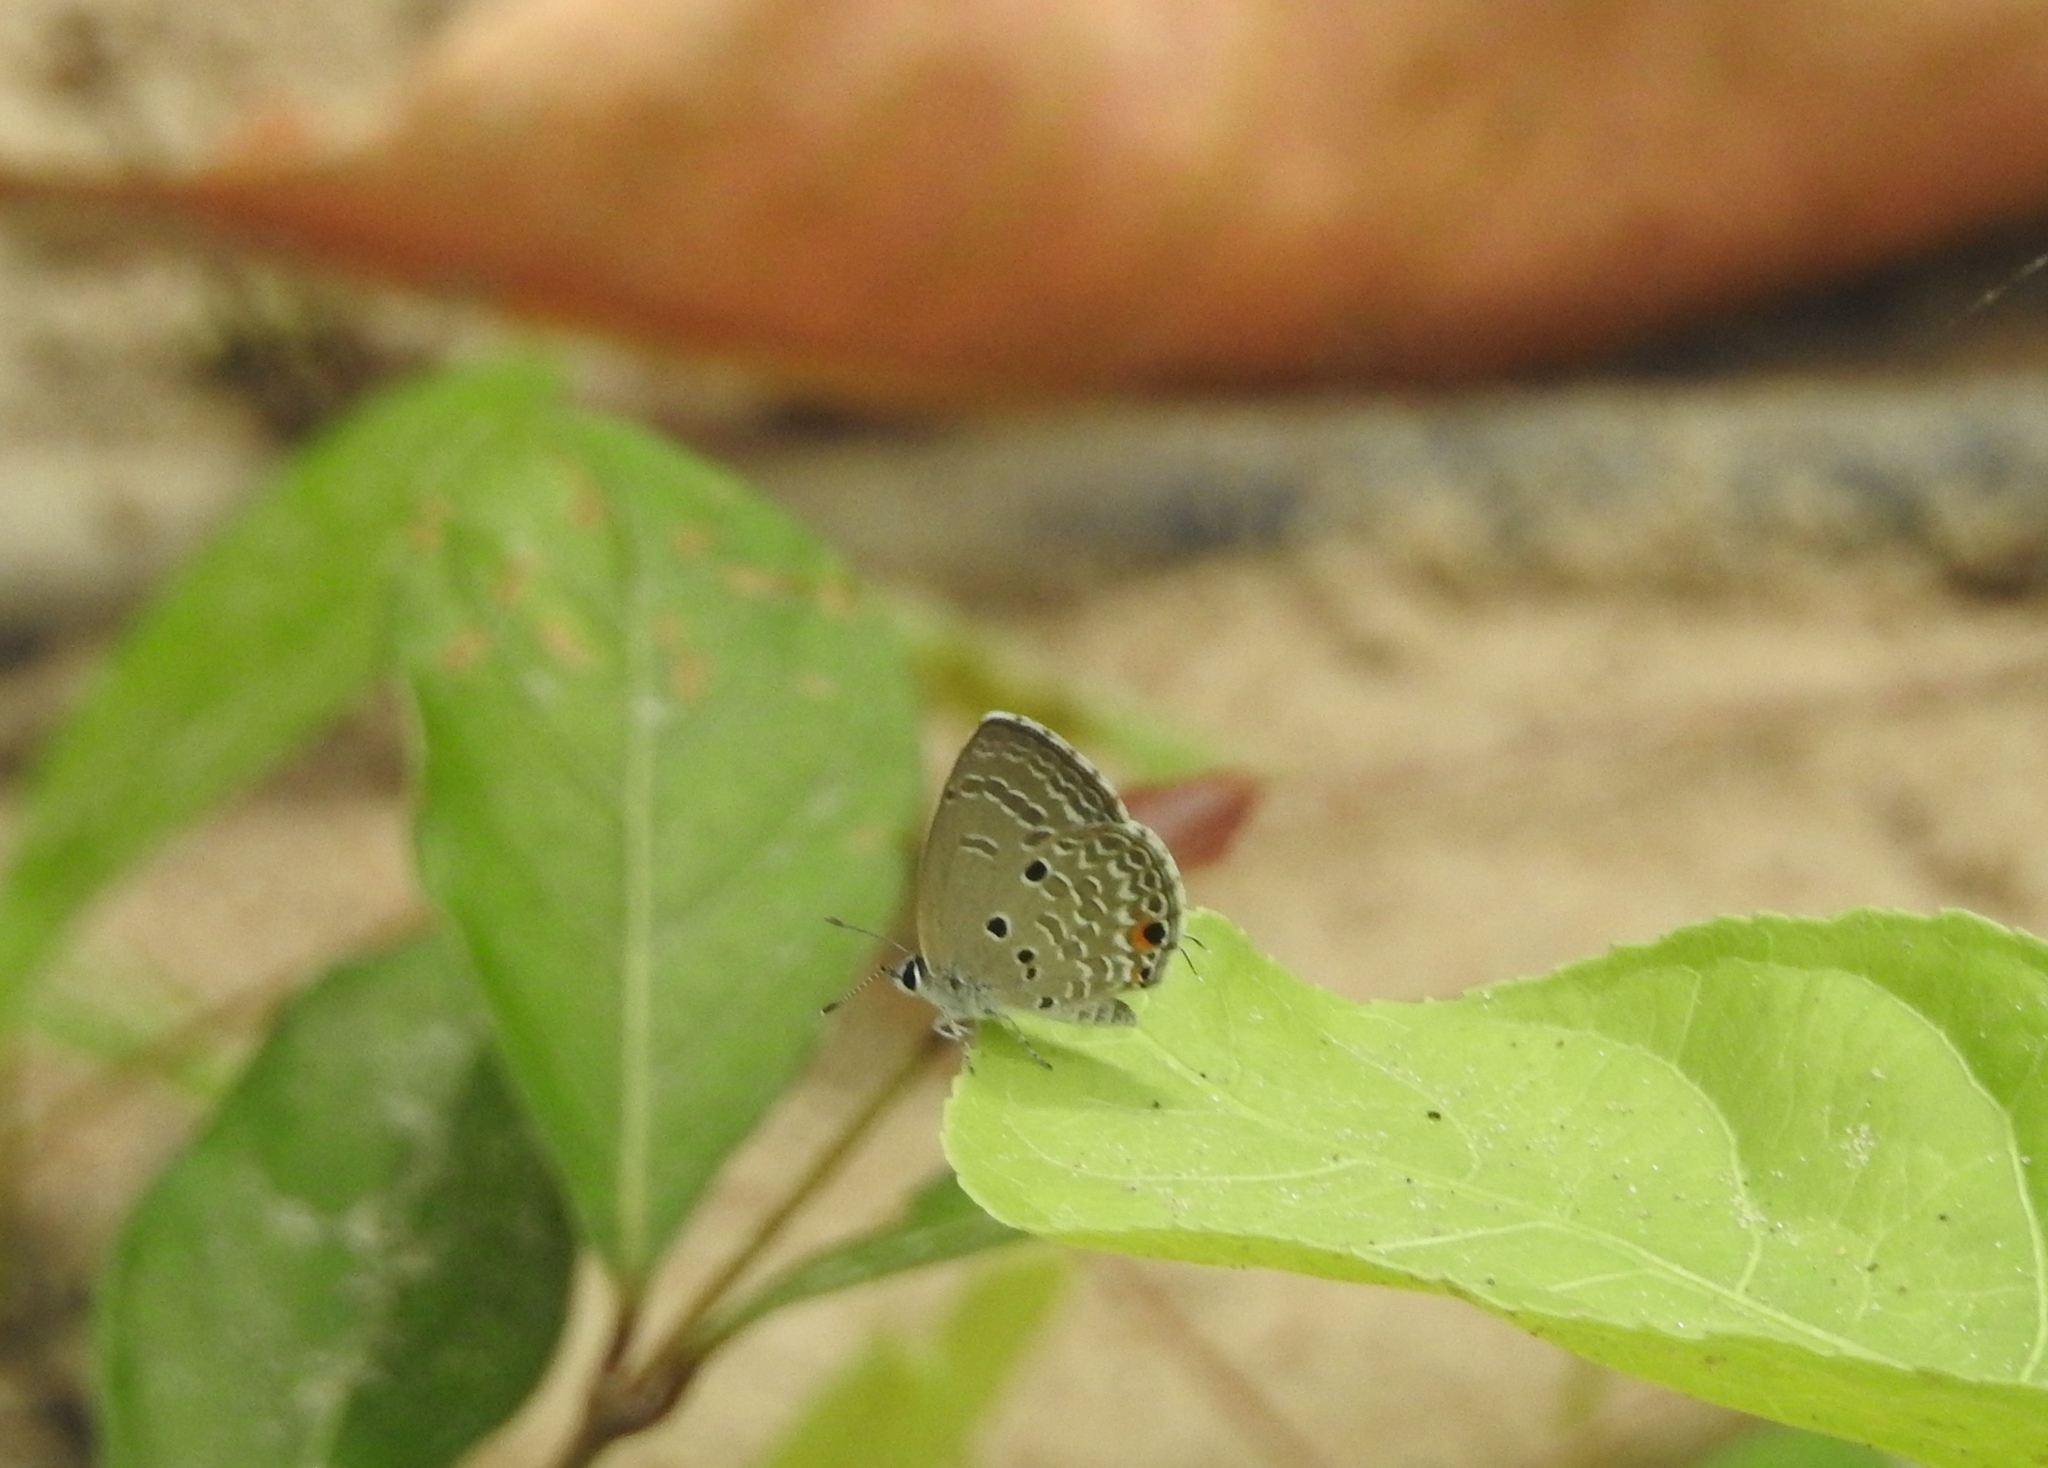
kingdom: Animalia
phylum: Arthropoda
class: Insecta
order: Lepidoptera
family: Lycaenidae
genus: Luthrodes
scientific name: Luthrodes pandava
